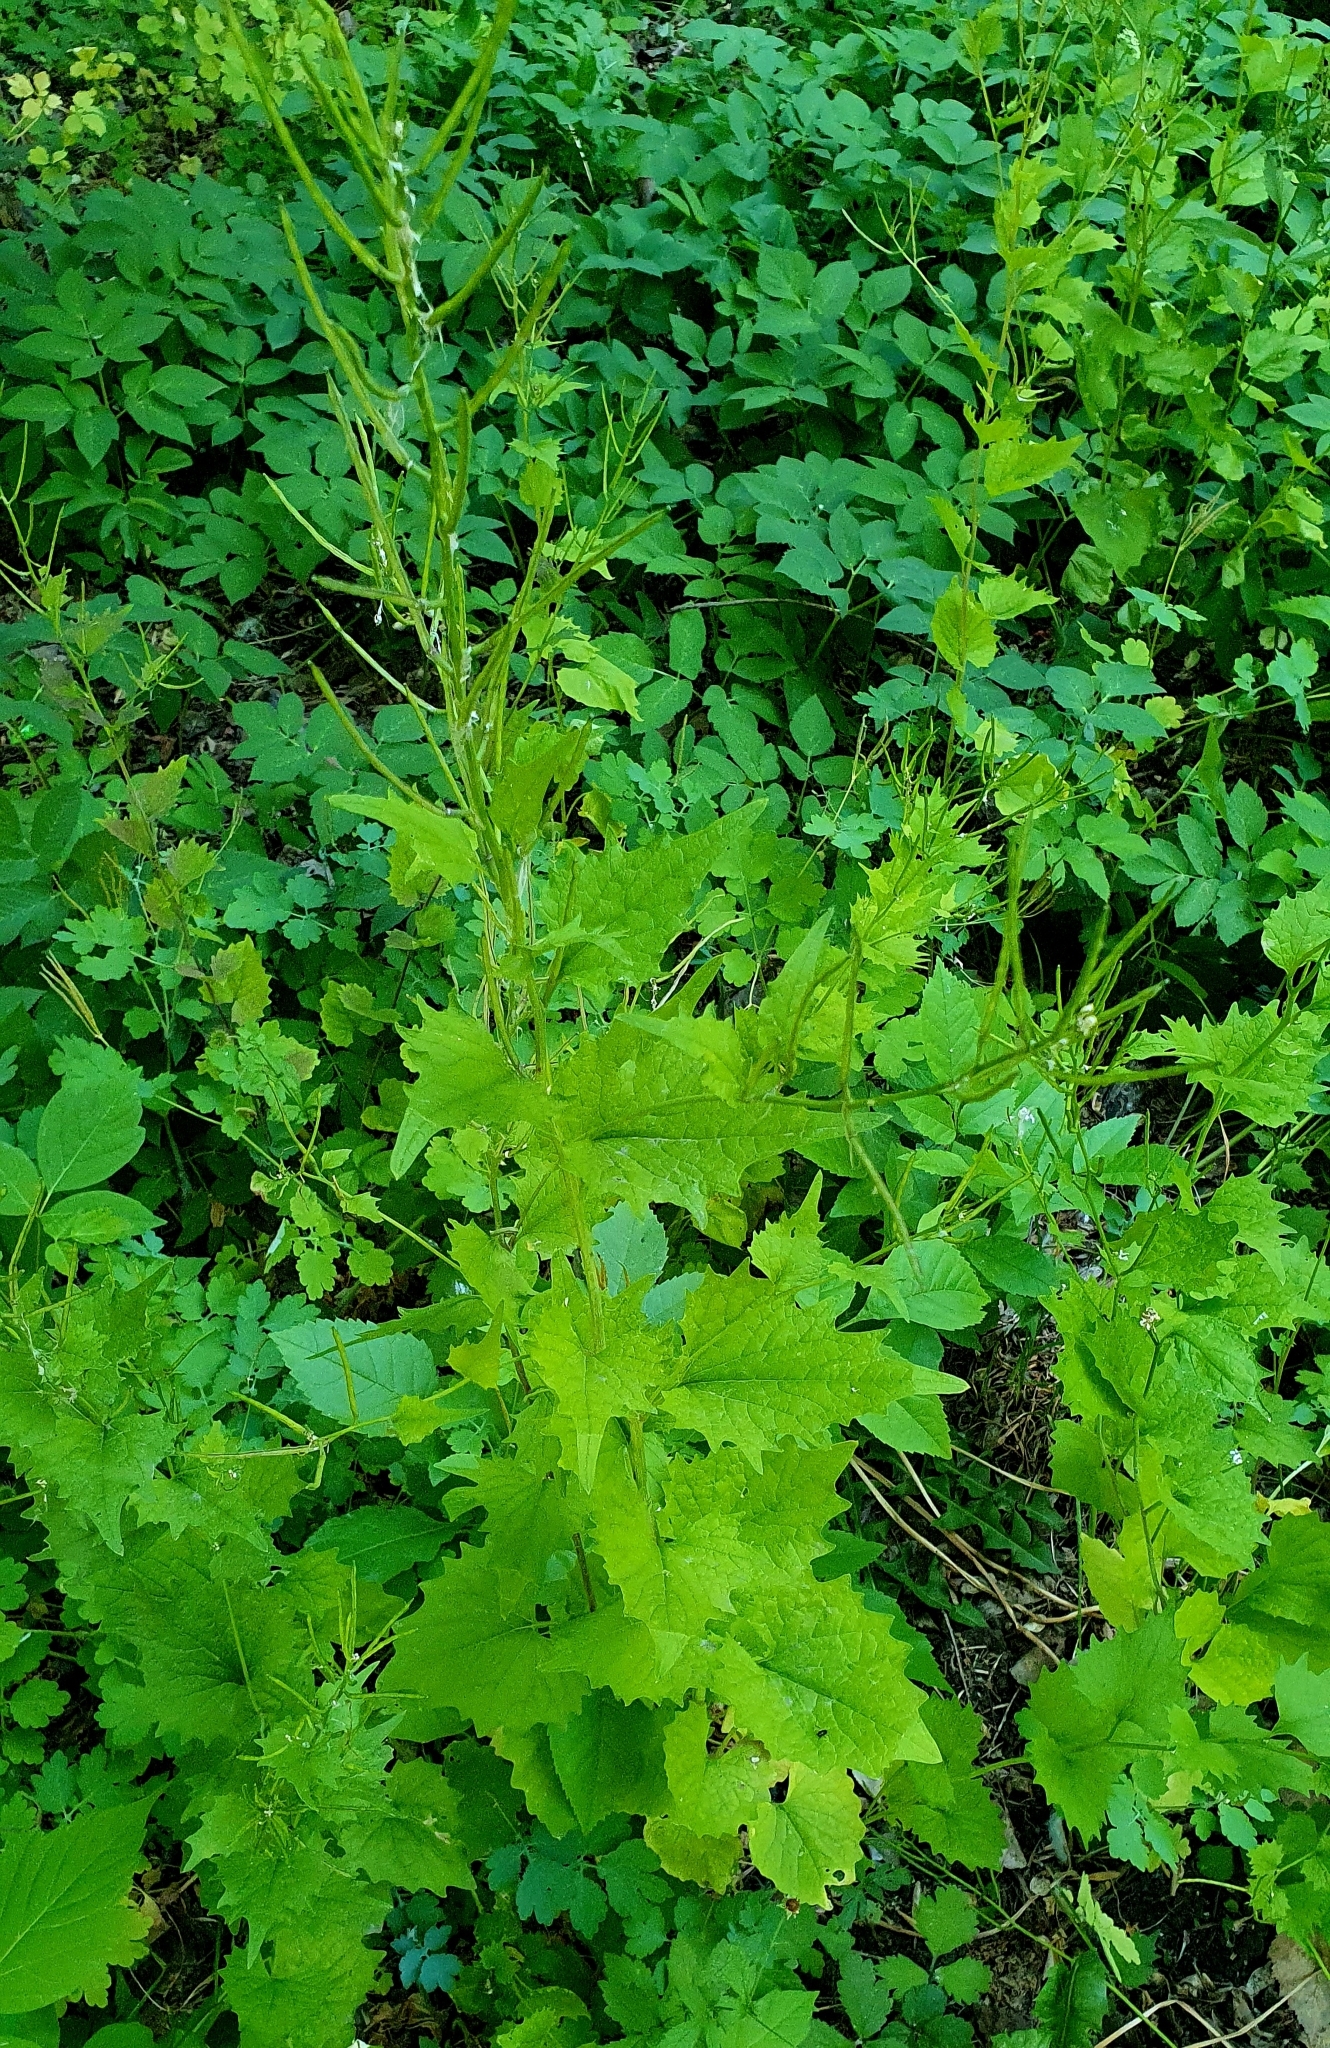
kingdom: Plantae
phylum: Tracheophyta
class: Magnoliopsida
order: Brassicales
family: Brassicaceae
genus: Alliaria
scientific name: Alliaria petiolata
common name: Garlic mustard
